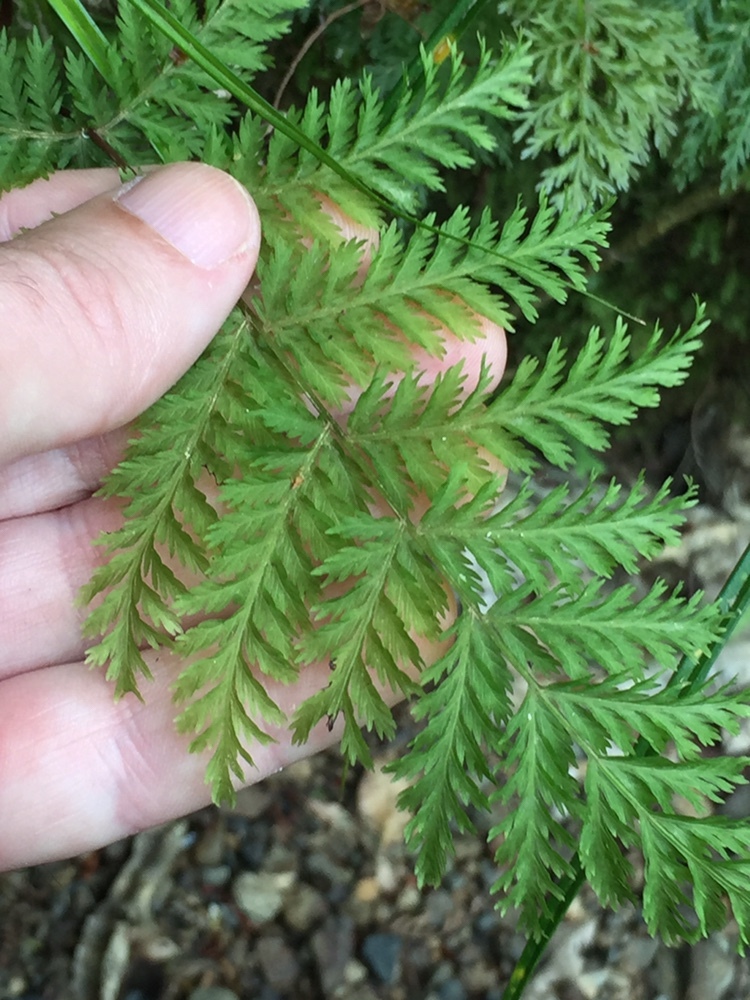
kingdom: Plantae
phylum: Tracheophyta
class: Polypodiopsida
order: Osmundales
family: Osmundaceae
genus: Leptopteris
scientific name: Leptopteris hymenophylloides
